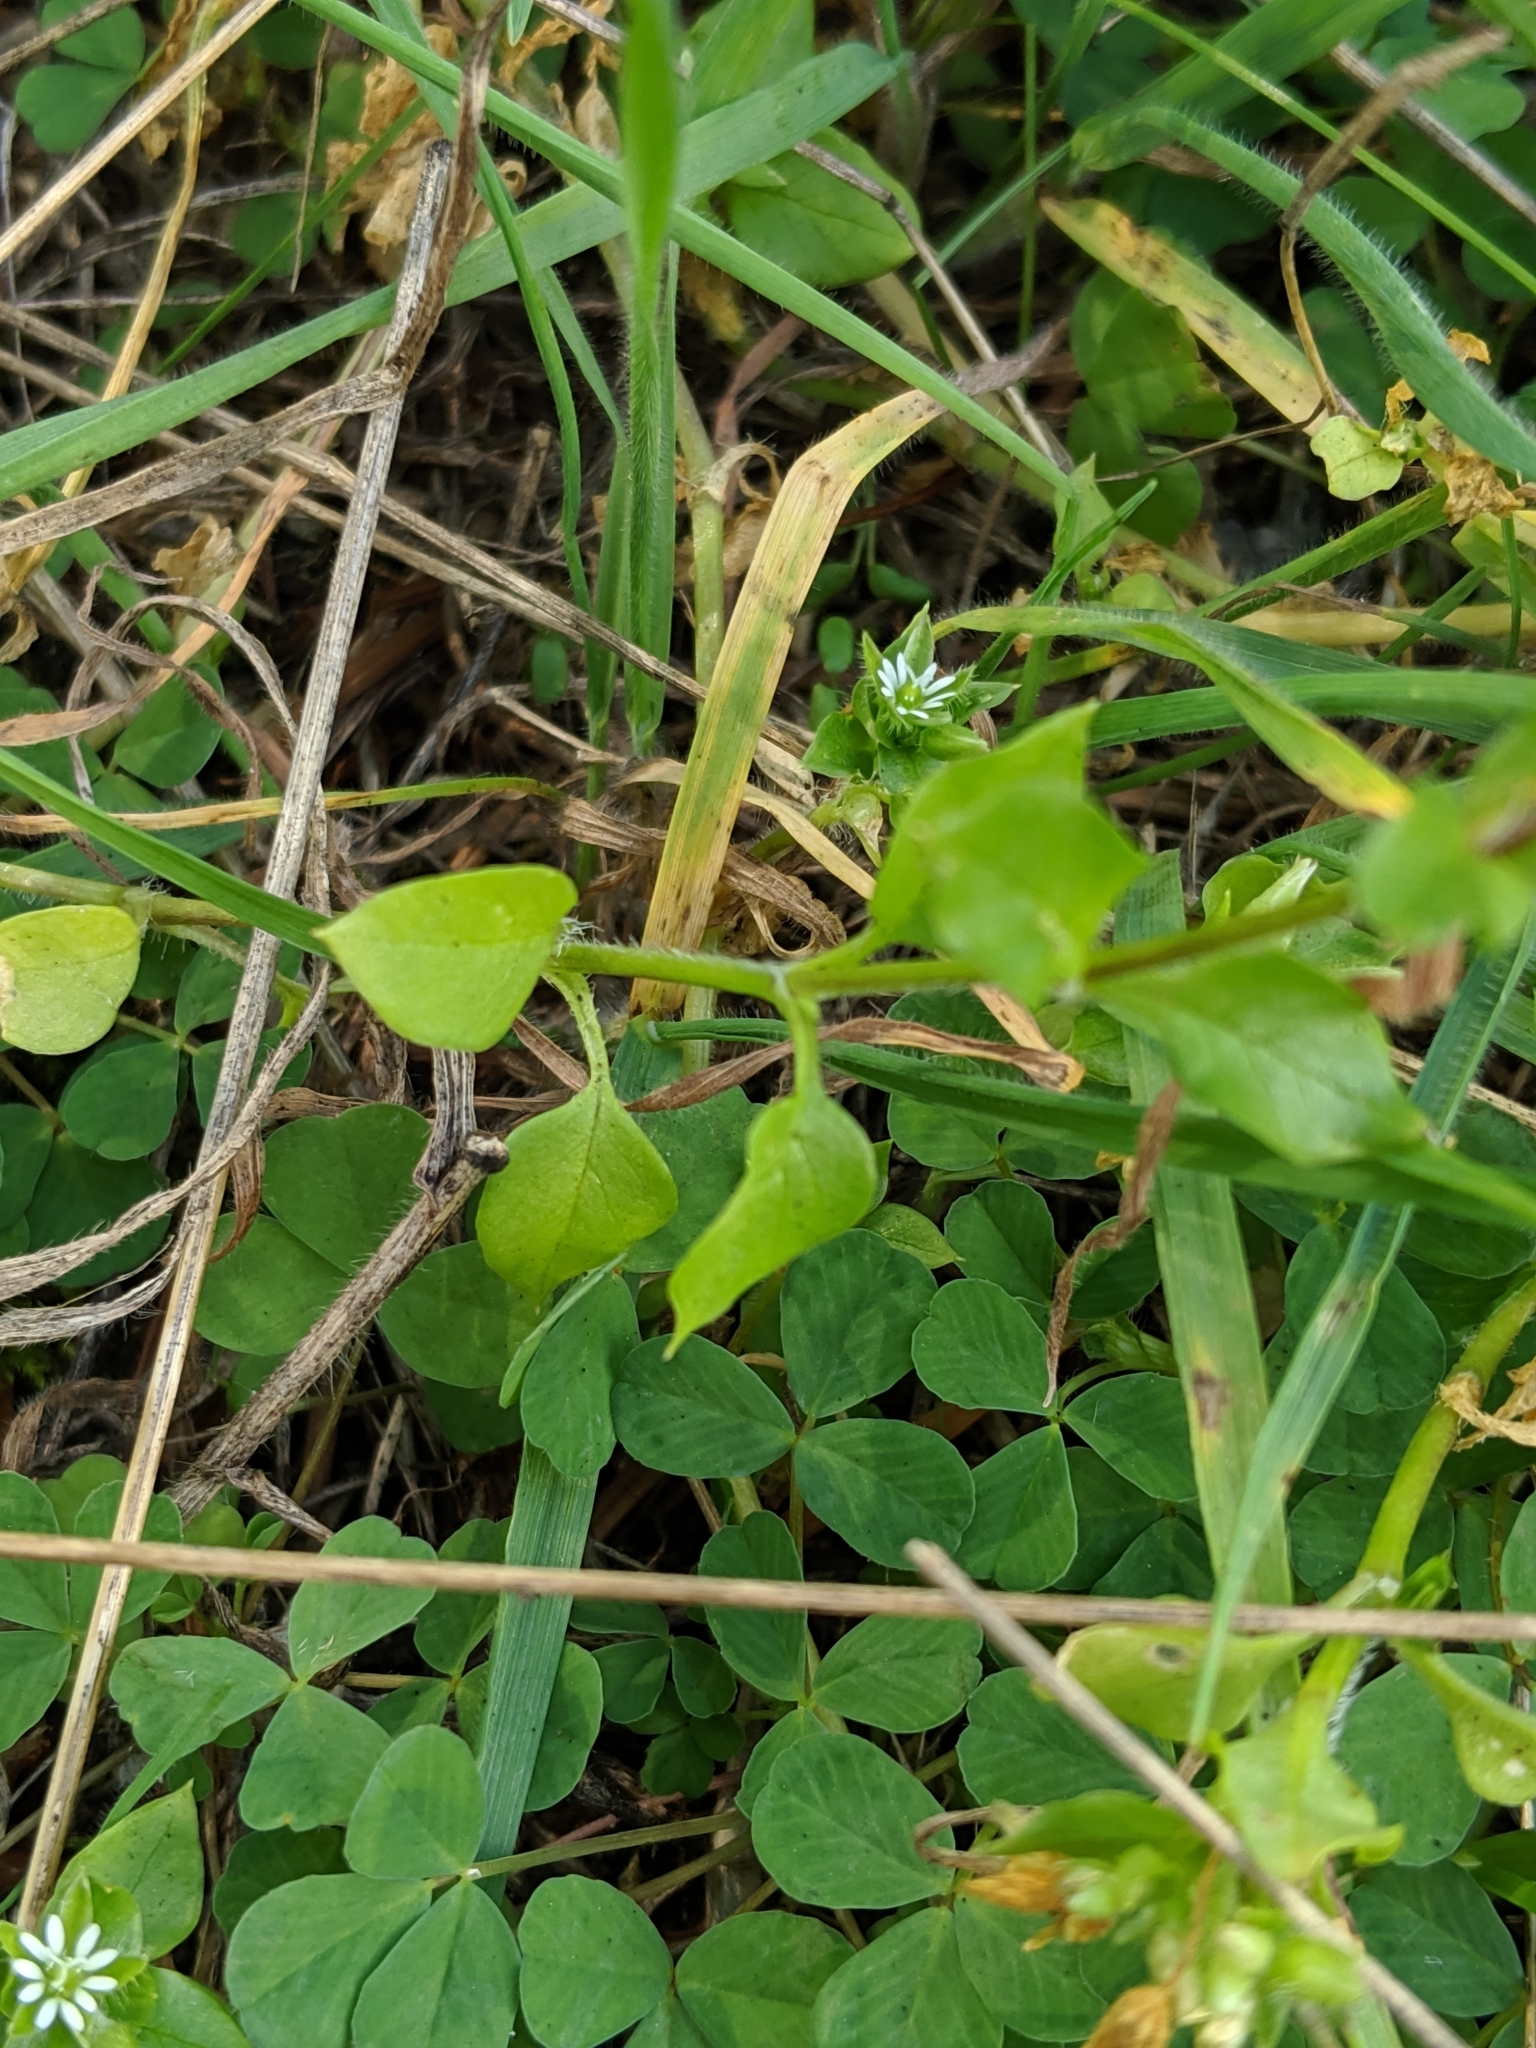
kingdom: Plantae
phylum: Tracheophyta
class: Magnoliopsida
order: Caryophyllales
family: Caryophyllaceae
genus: Stellaria
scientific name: Stellaria media
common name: Common chickweed
